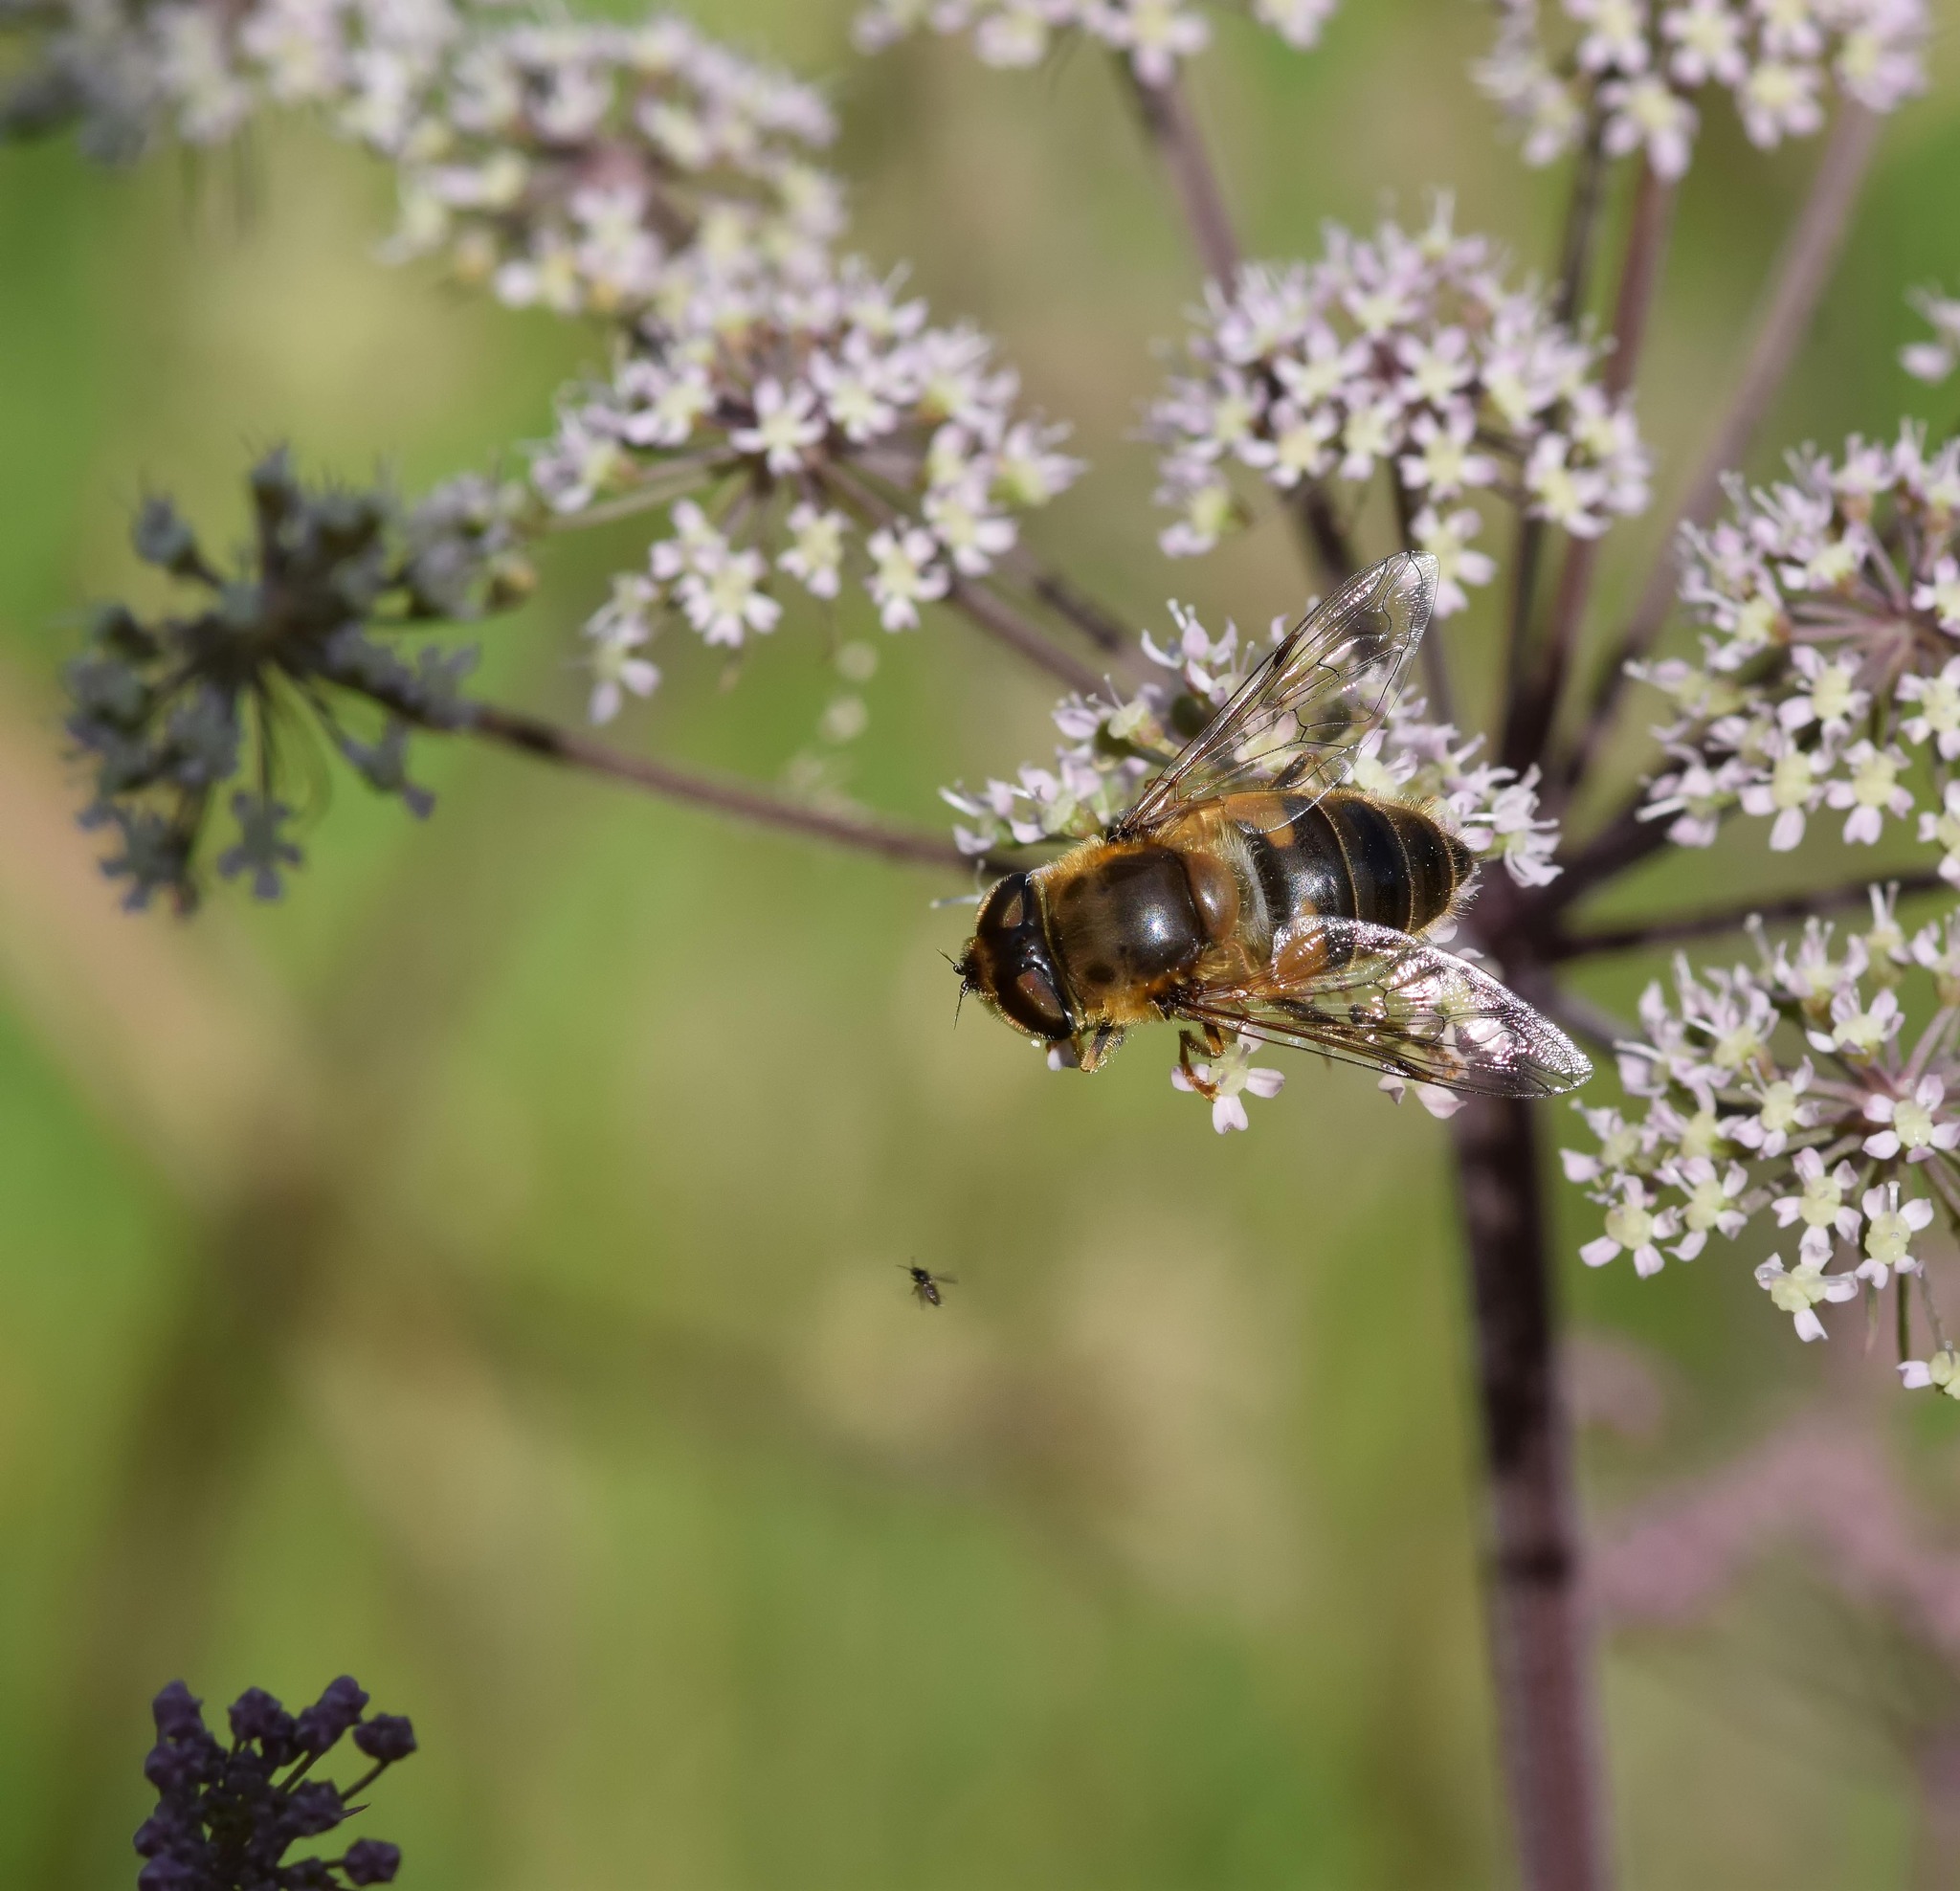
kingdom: Animalia
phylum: Arthropoda
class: Insecta
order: Diptera
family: Syrphidae
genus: Eristalis
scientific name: Eristalis pertinax
